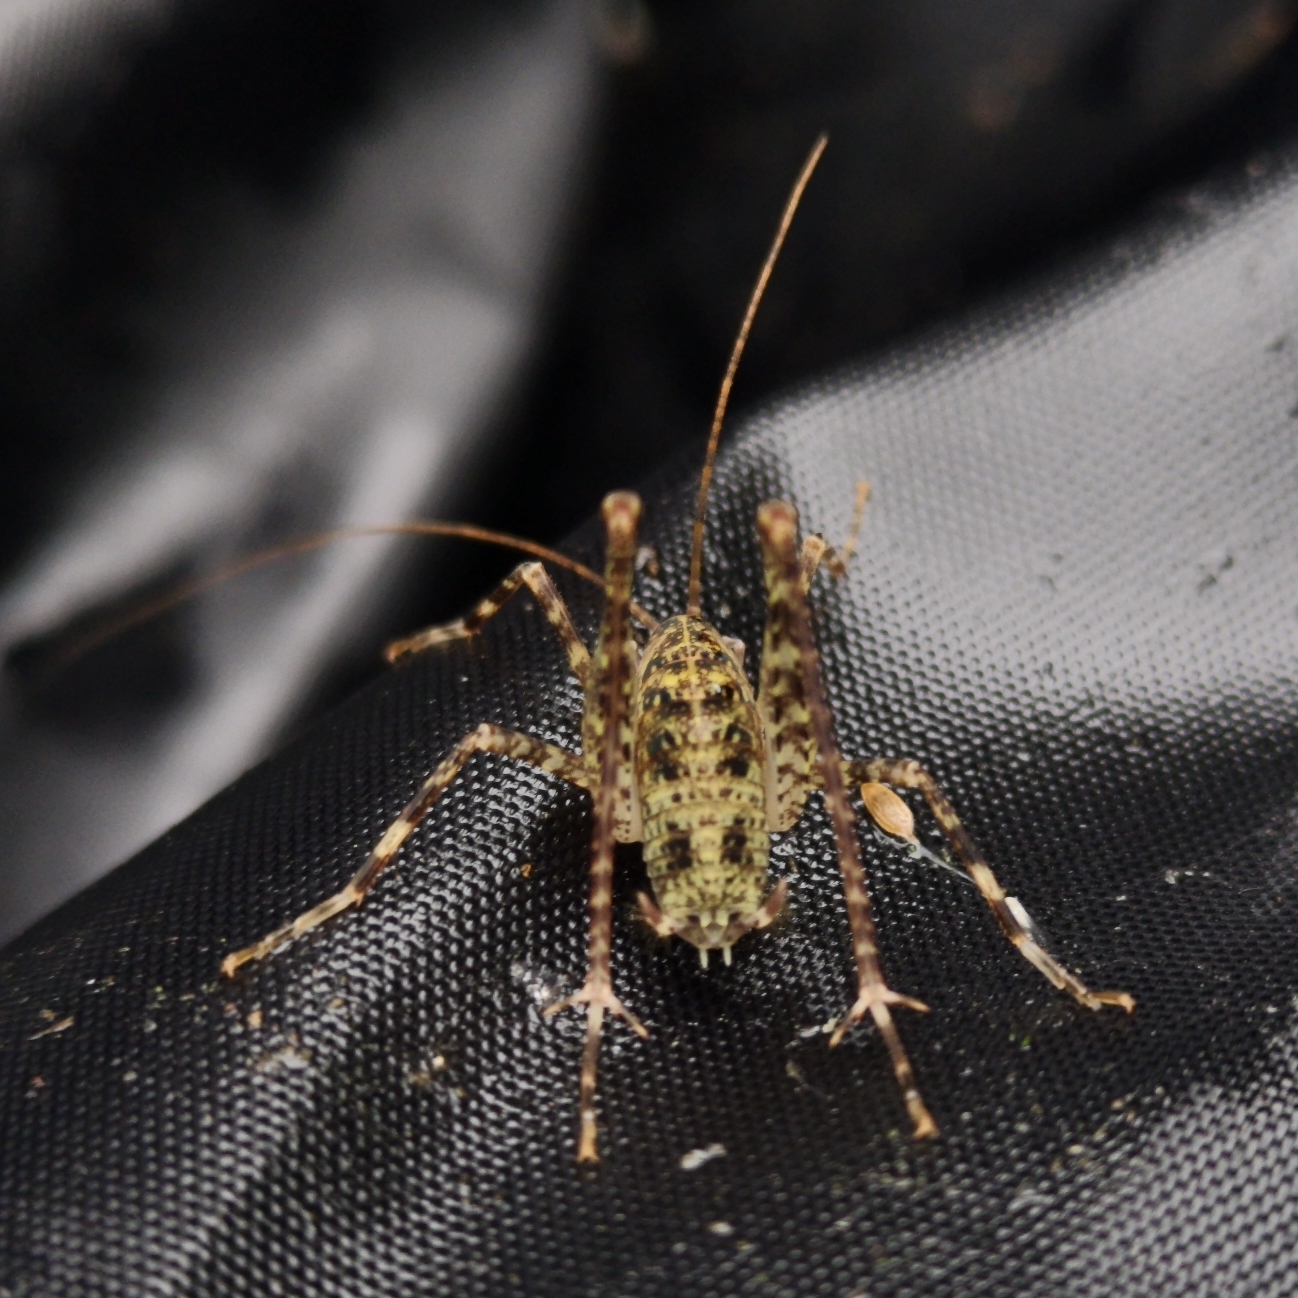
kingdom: Animalia
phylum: Arthropoda
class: Insecta
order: Orthoptera
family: Rhaphidophoridae
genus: Troglophilus
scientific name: Troglophilus neglectus
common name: Neglected cave-cricket
